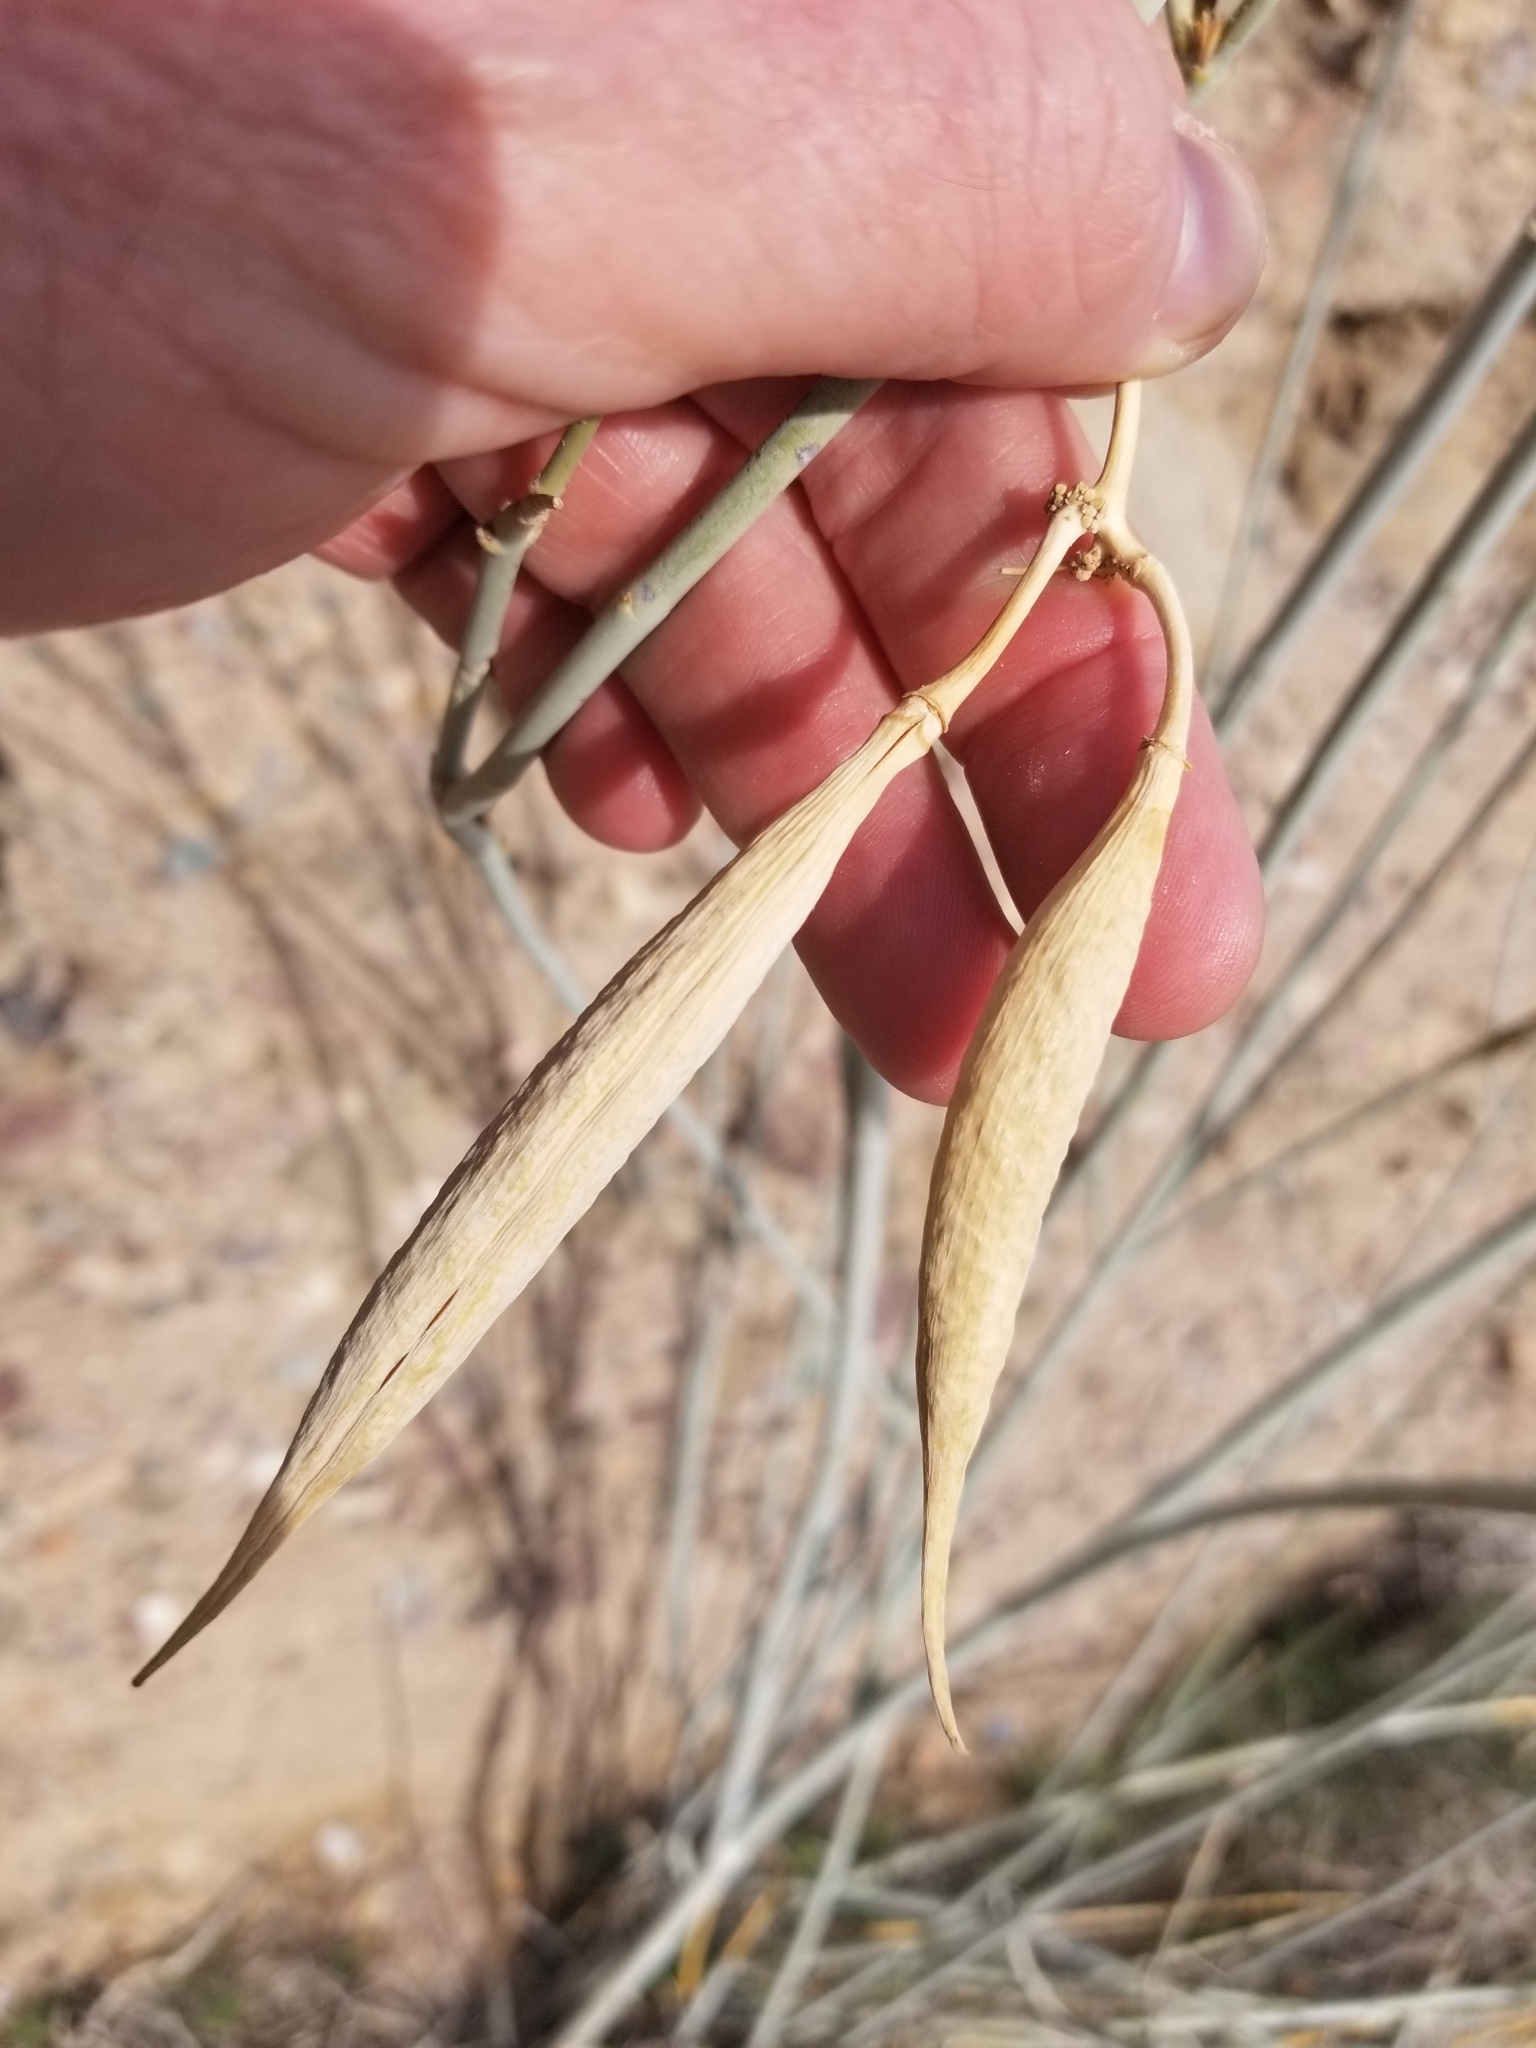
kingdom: Plantae
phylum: Tracheophyta
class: Magnoliopsida
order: Gentianales
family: Apocynaceae
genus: Asclepias
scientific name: Asclepias subulata
